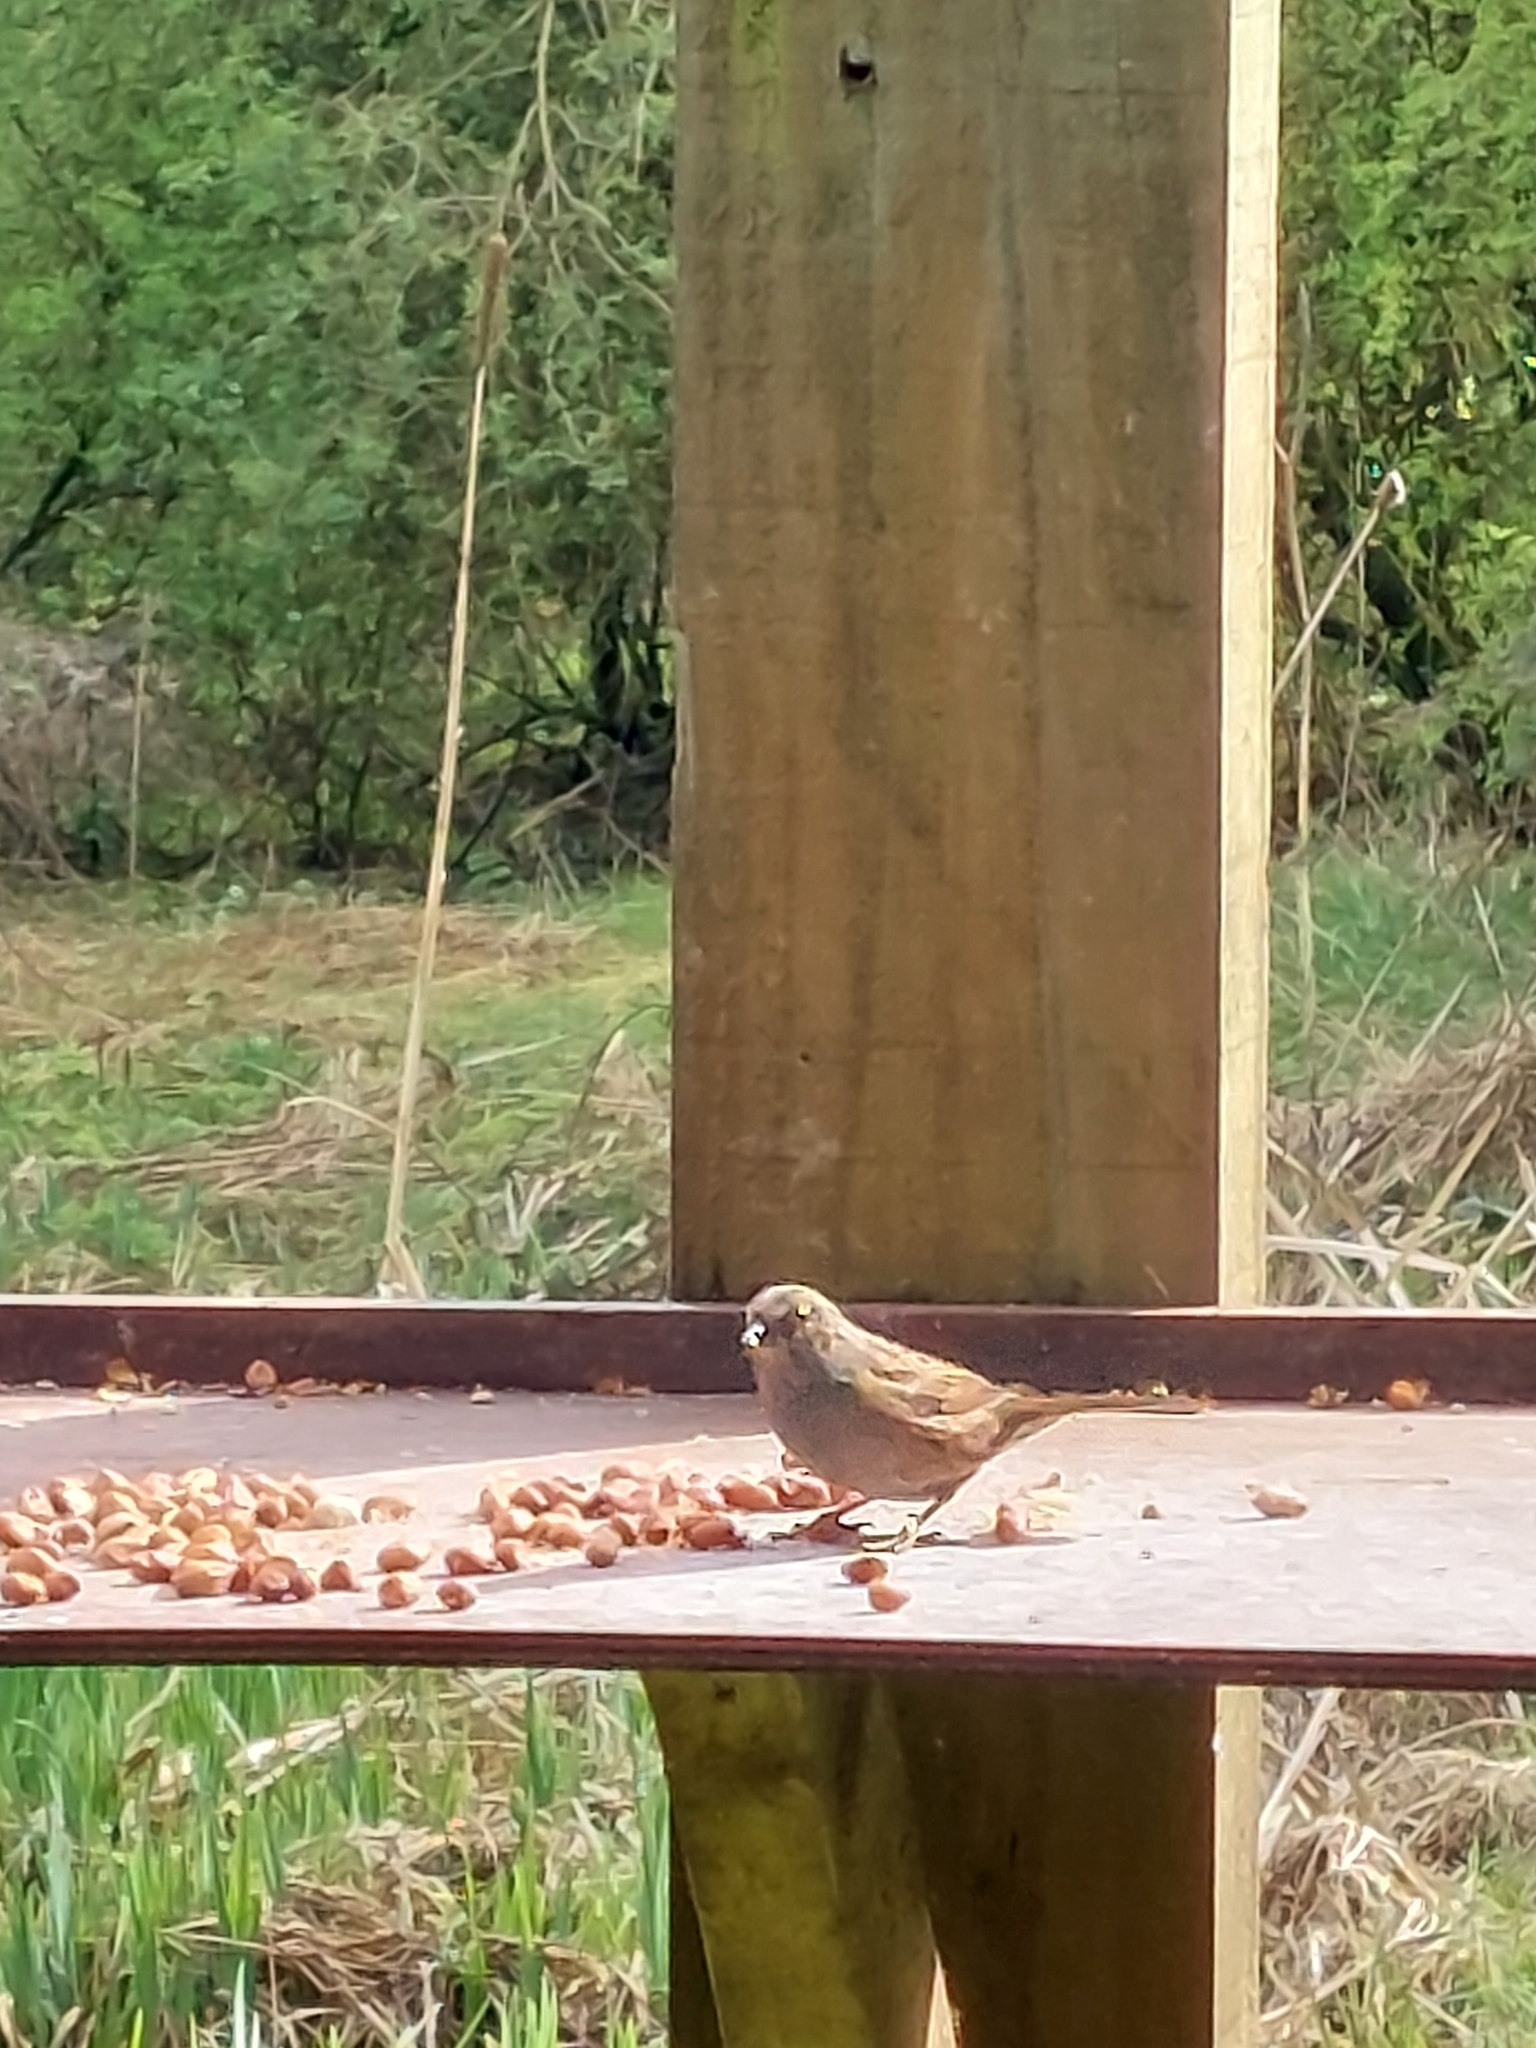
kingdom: Animalia
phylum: Chordata
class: Aves
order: Passeriformes
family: Prunellidae
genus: Prunella
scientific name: Prunella modularis
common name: Dunnock
